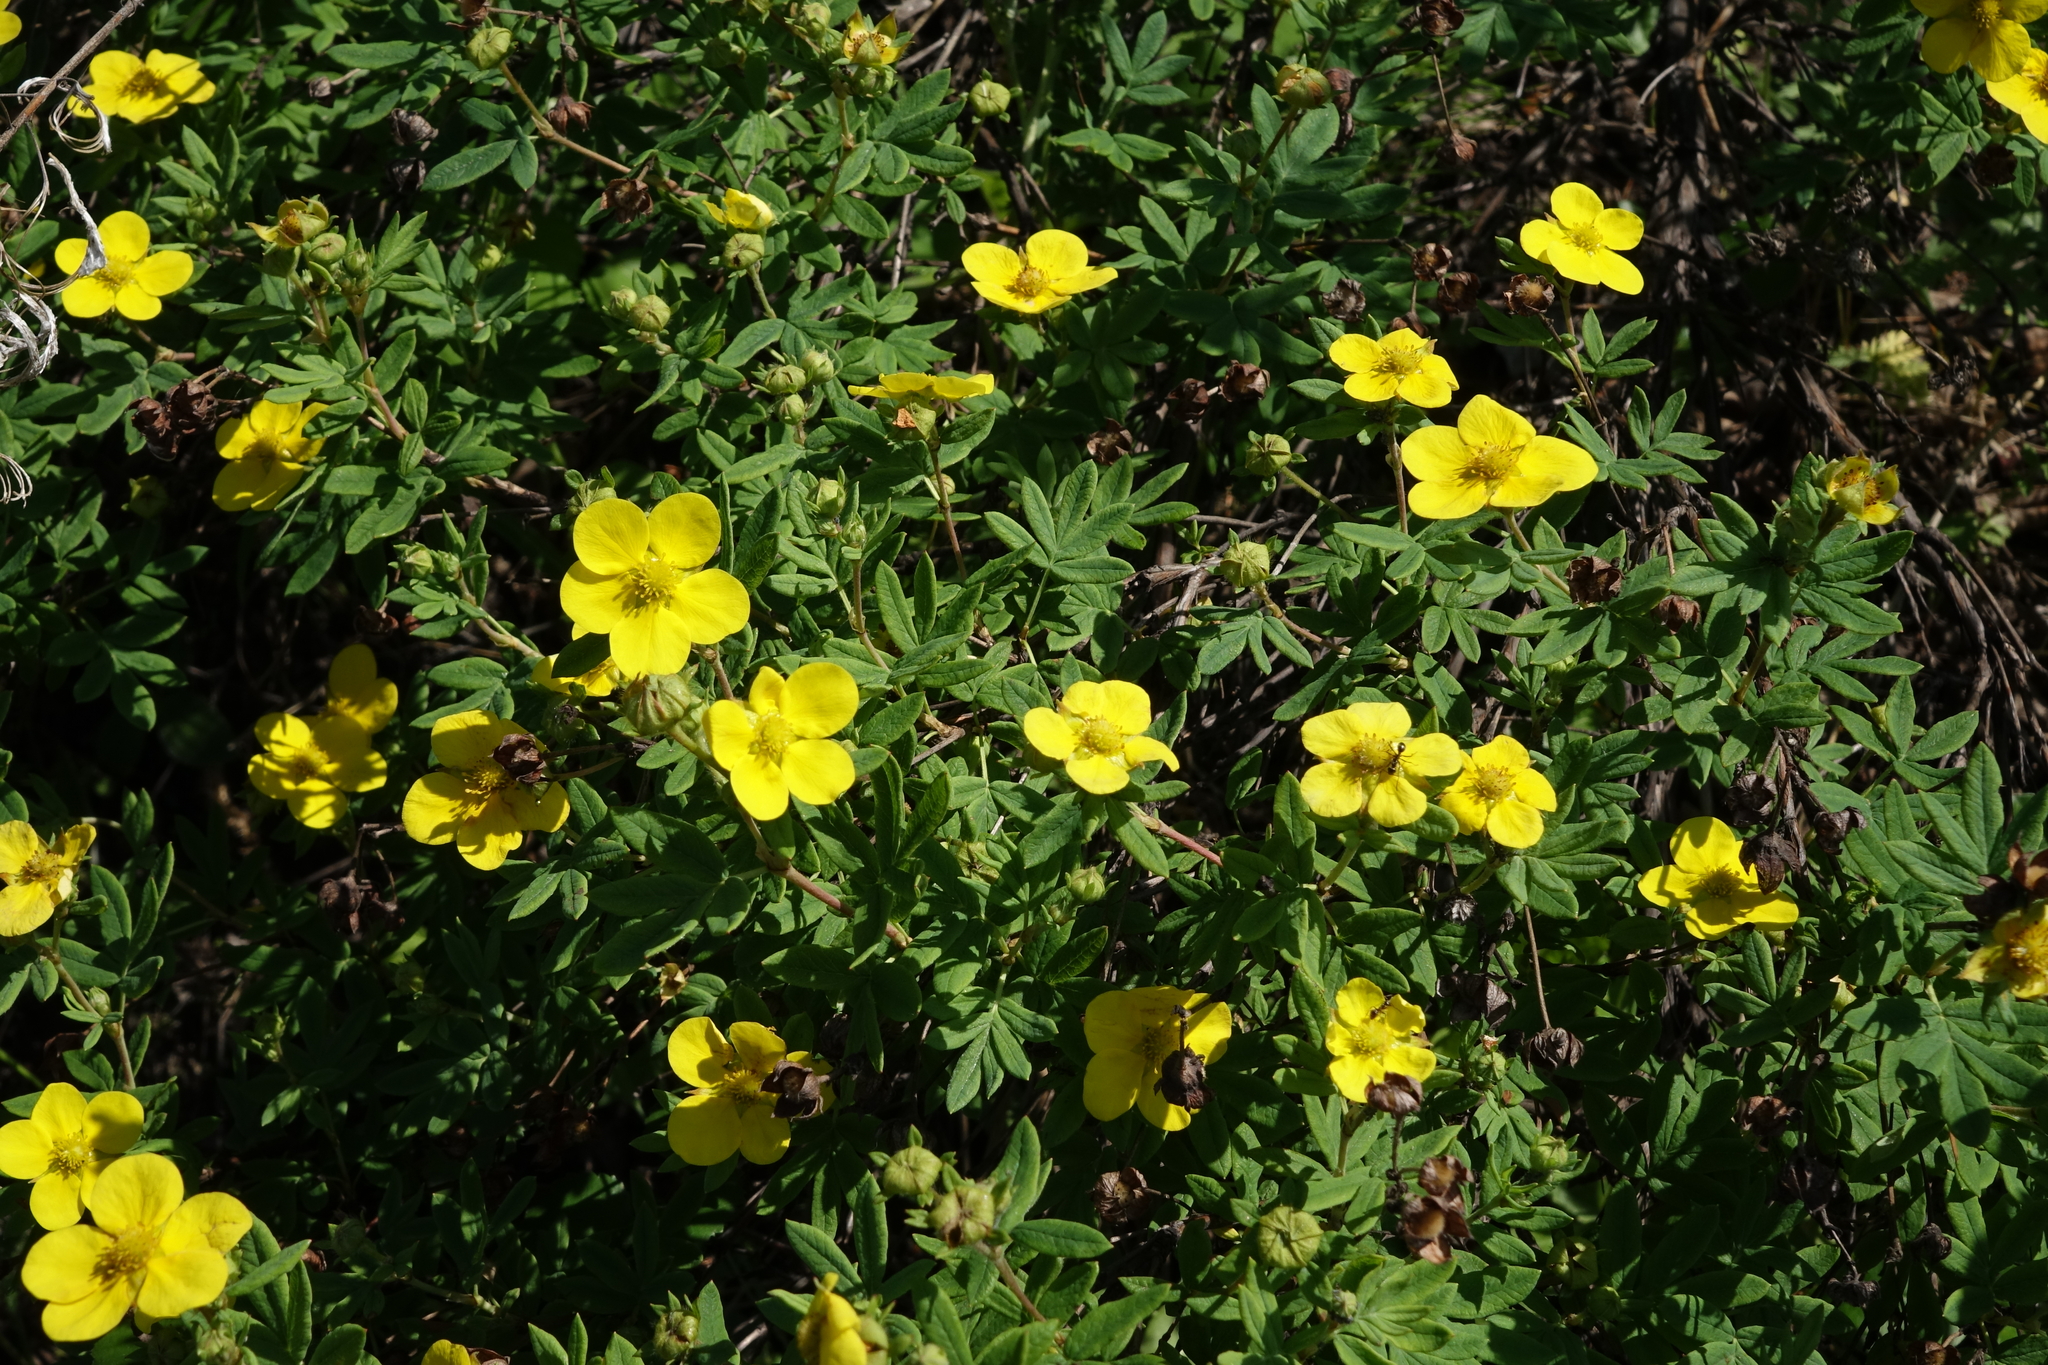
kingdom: Plantae
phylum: Tracheophyta
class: Magnoliopsida
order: Rosales
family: Rosaceae
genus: Dasiphora
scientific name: Dasiphora fruticosa
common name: Shrubby cinquefoil
